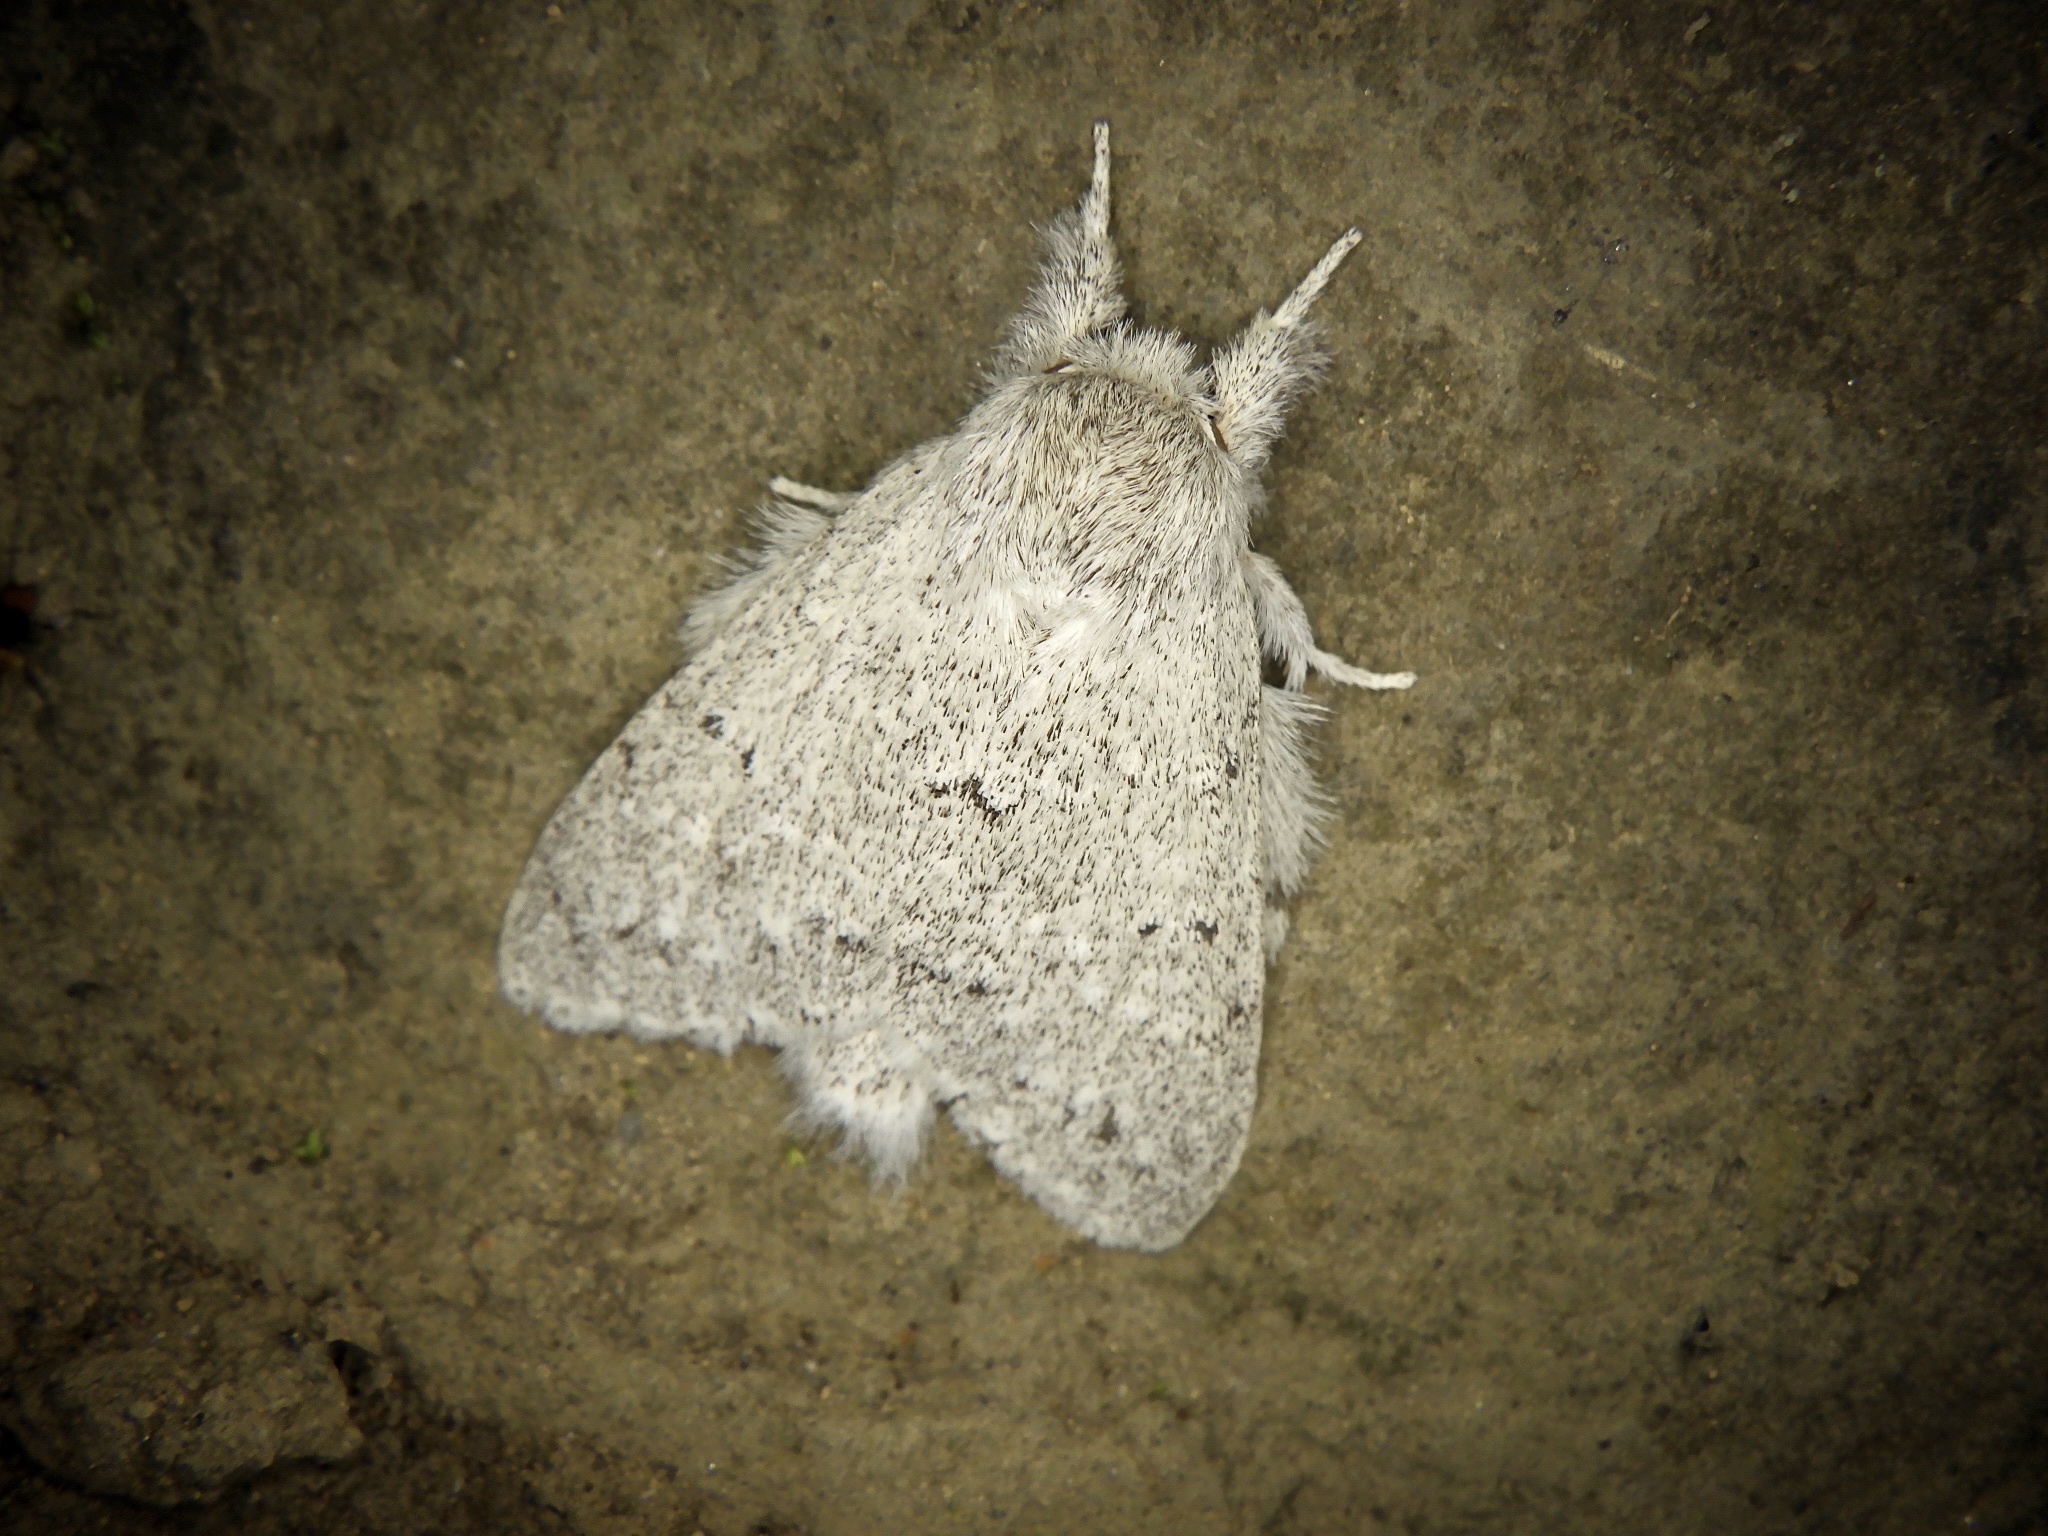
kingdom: Animalia
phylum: Arthropoda
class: Insecta
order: Lepidoptera
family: Notodontidae
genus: Cnethodonta
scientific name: Cnethodonta grisescens
